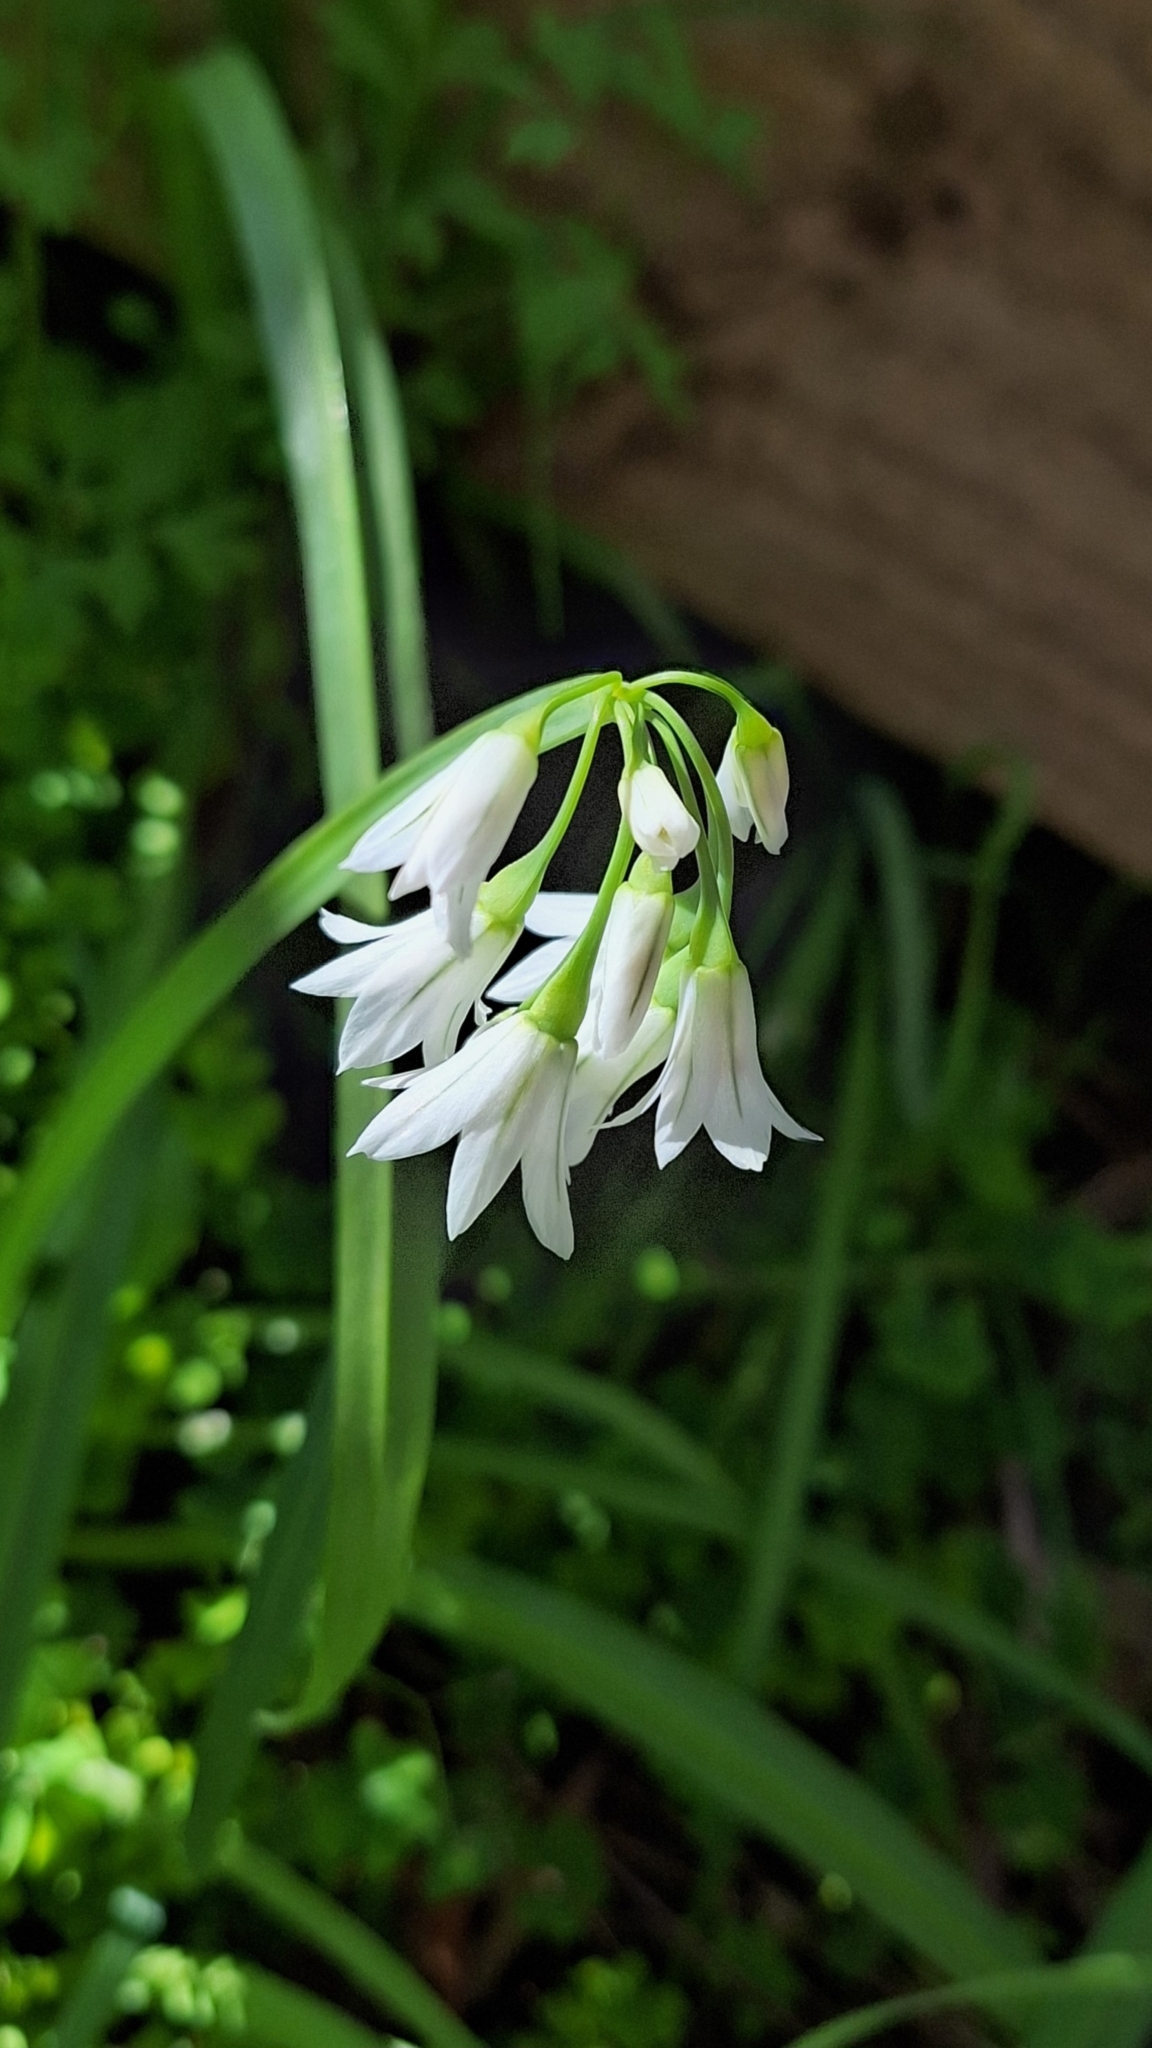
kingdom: Plantae
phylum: Tracheophyta
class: Liliopsida
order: Asparagales
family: Amaryllidaceae
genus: Allium
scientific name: Allium triquetrum
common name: Three-cornered garlic
